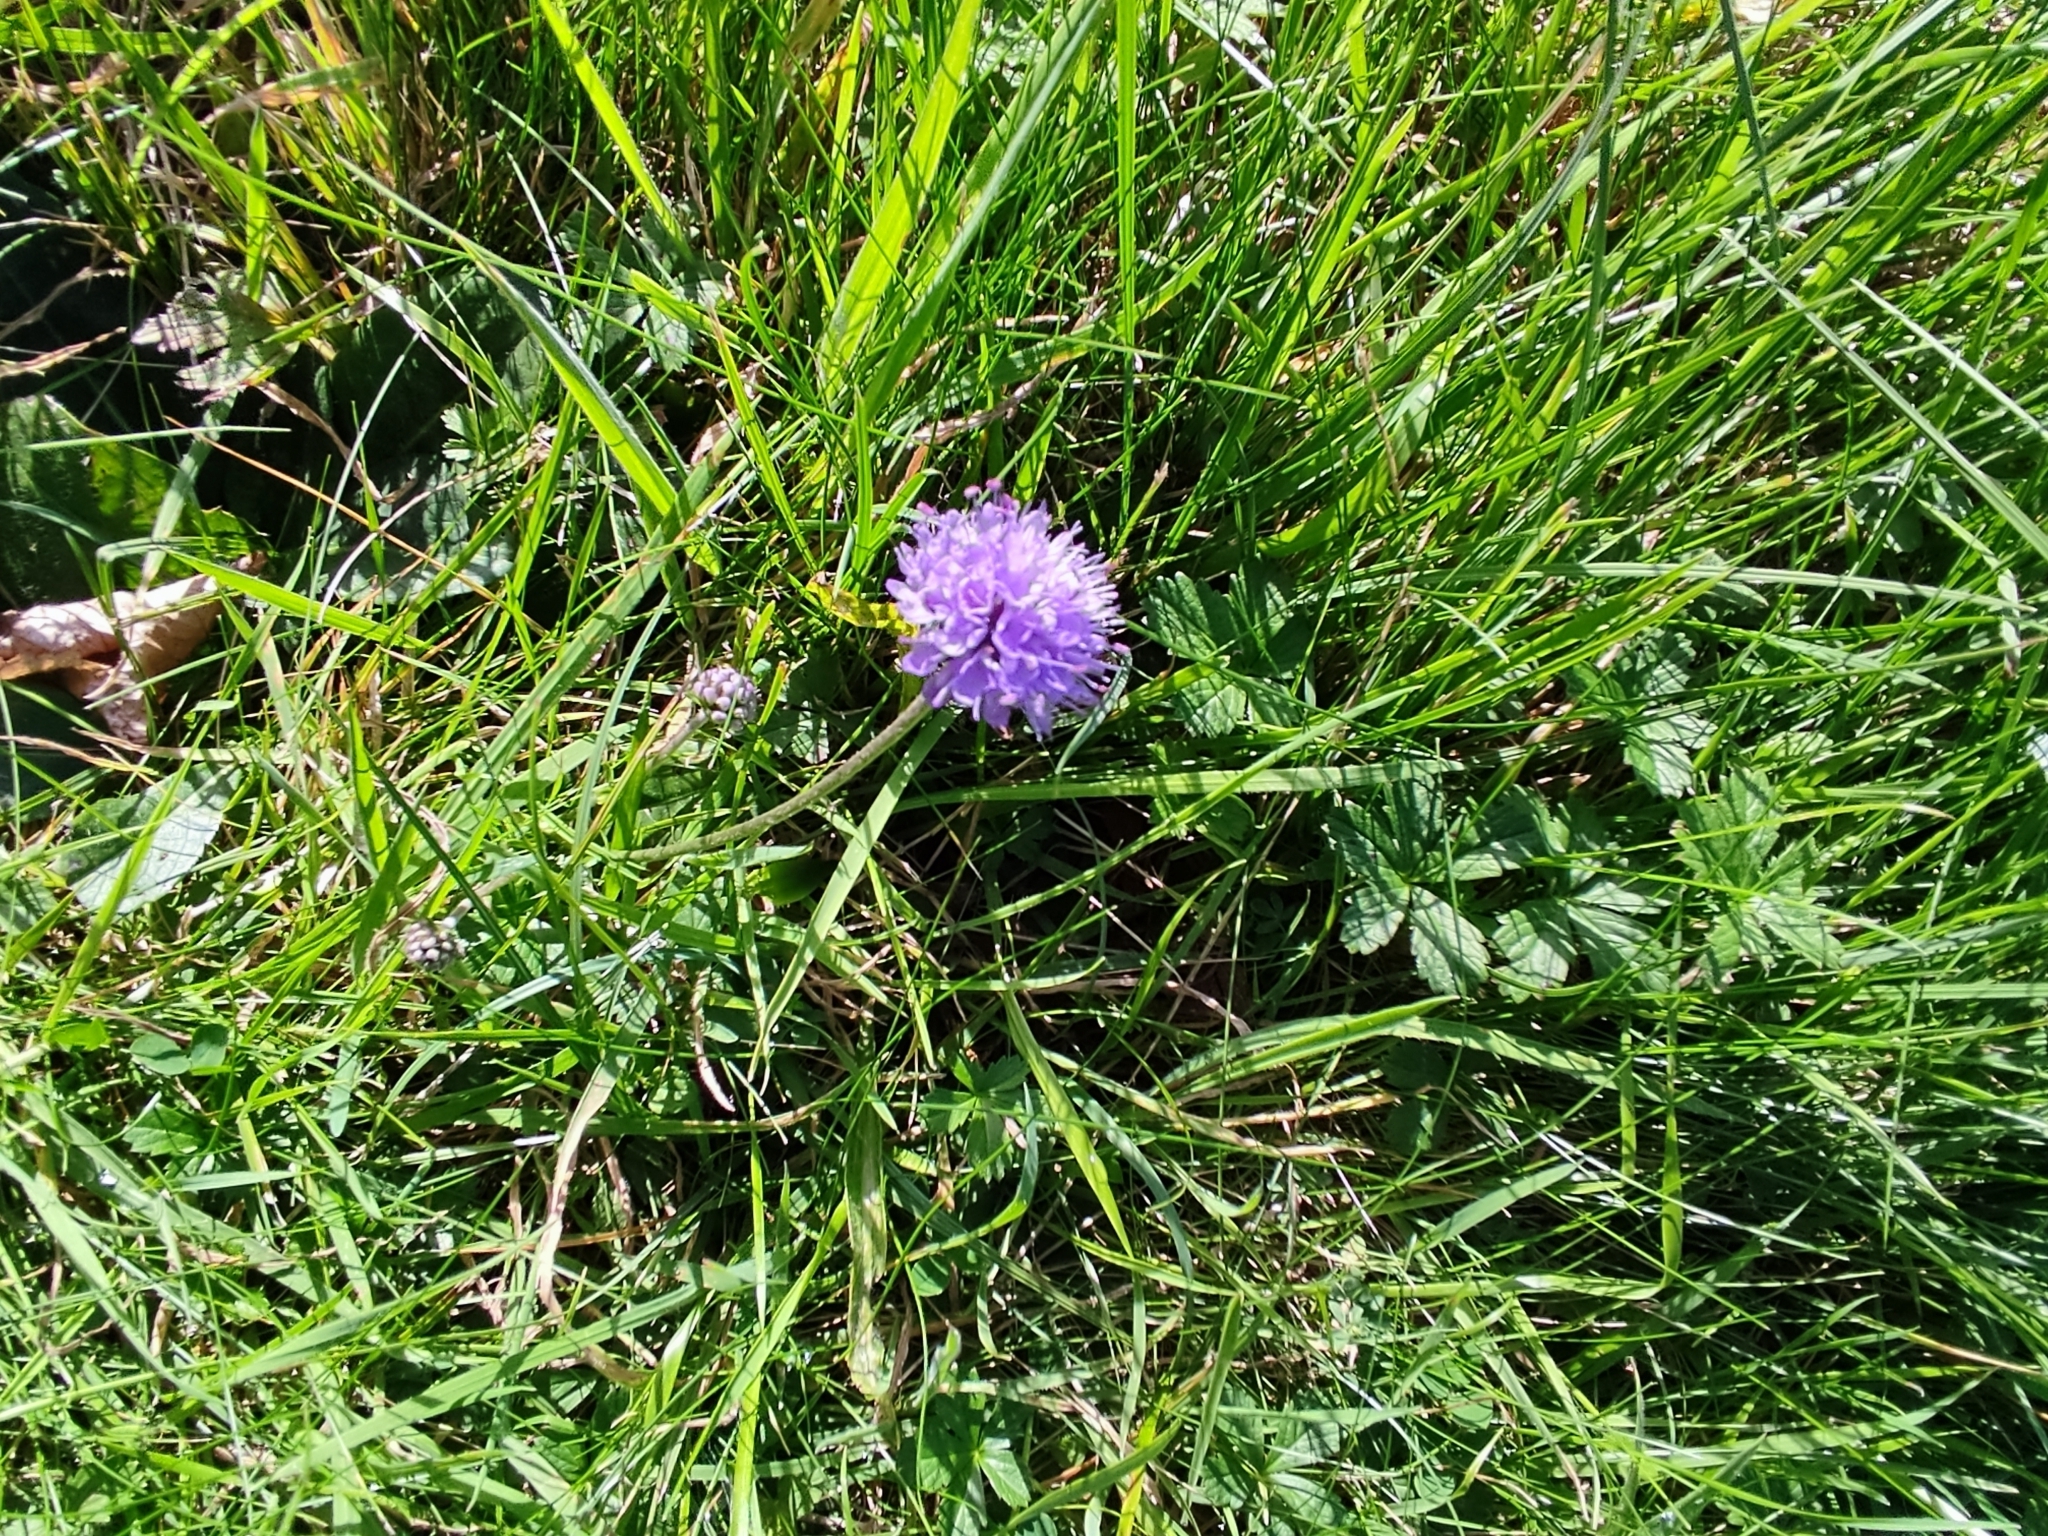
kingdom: Plantae
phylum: Tracheophyta
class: Magnoliopsida
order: Dipsacales
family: Caprifoliaceae
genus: Succisa
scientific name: Succisa pratensis
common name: Devil's-bit
